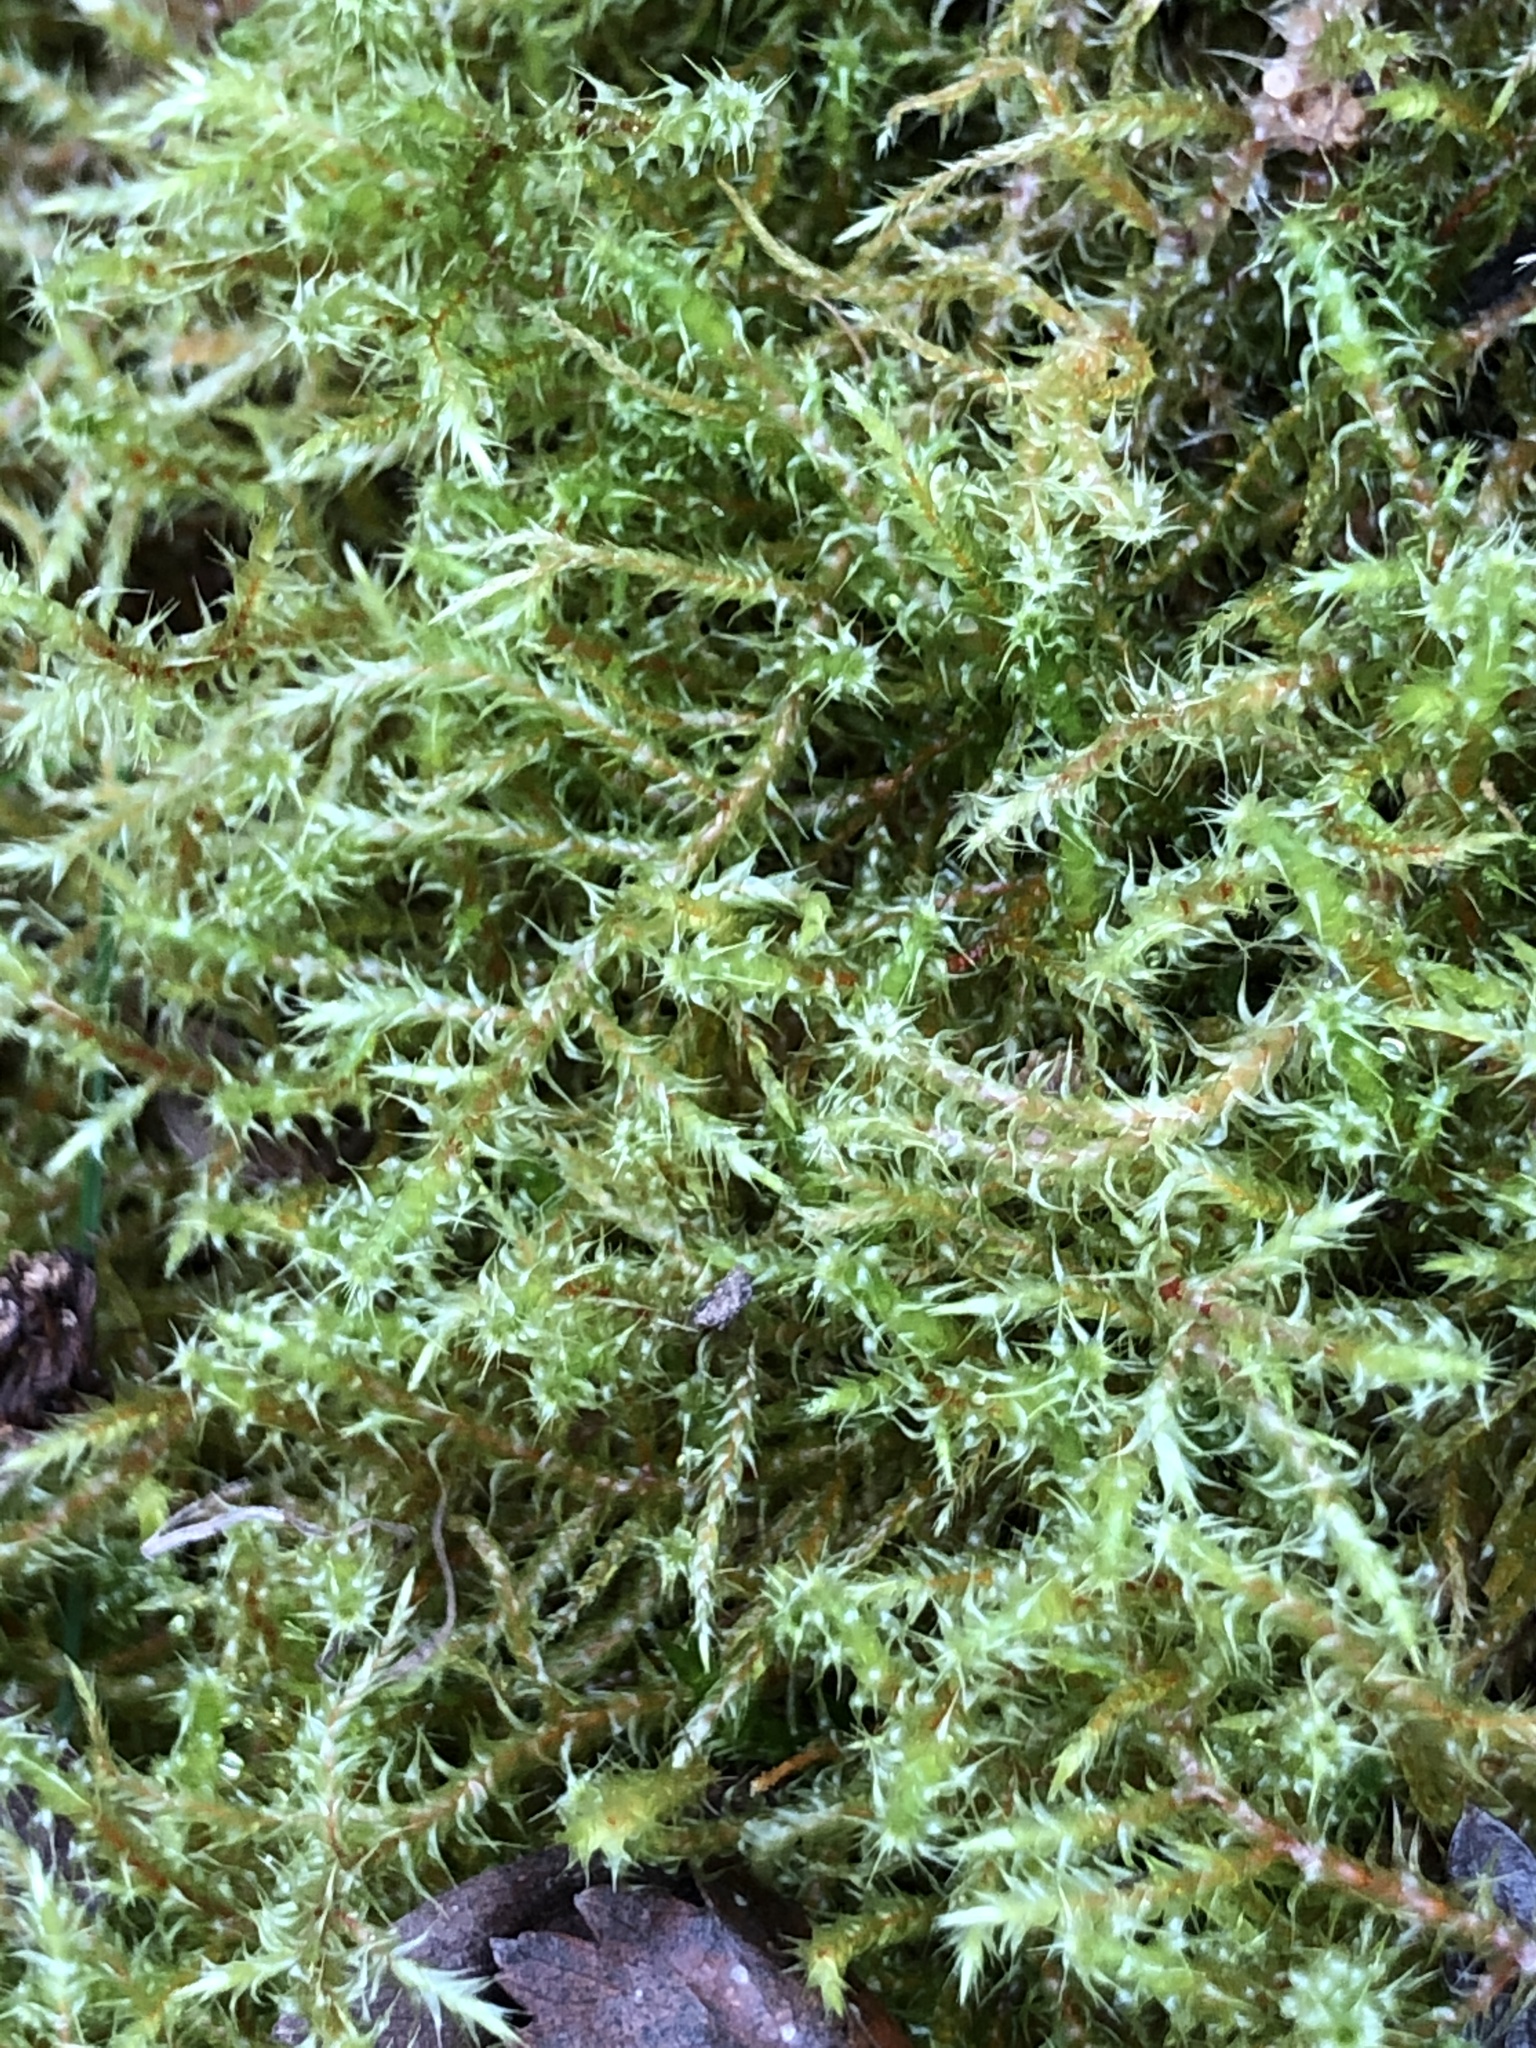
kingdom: Plantae
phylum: Bryophyta
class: Bryopsida
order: Hypnales
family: Hylocomiaceae
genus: Rhytidiadelphus
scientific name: Rhytidiadelphus squarrosus
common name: Springy turf-moss
